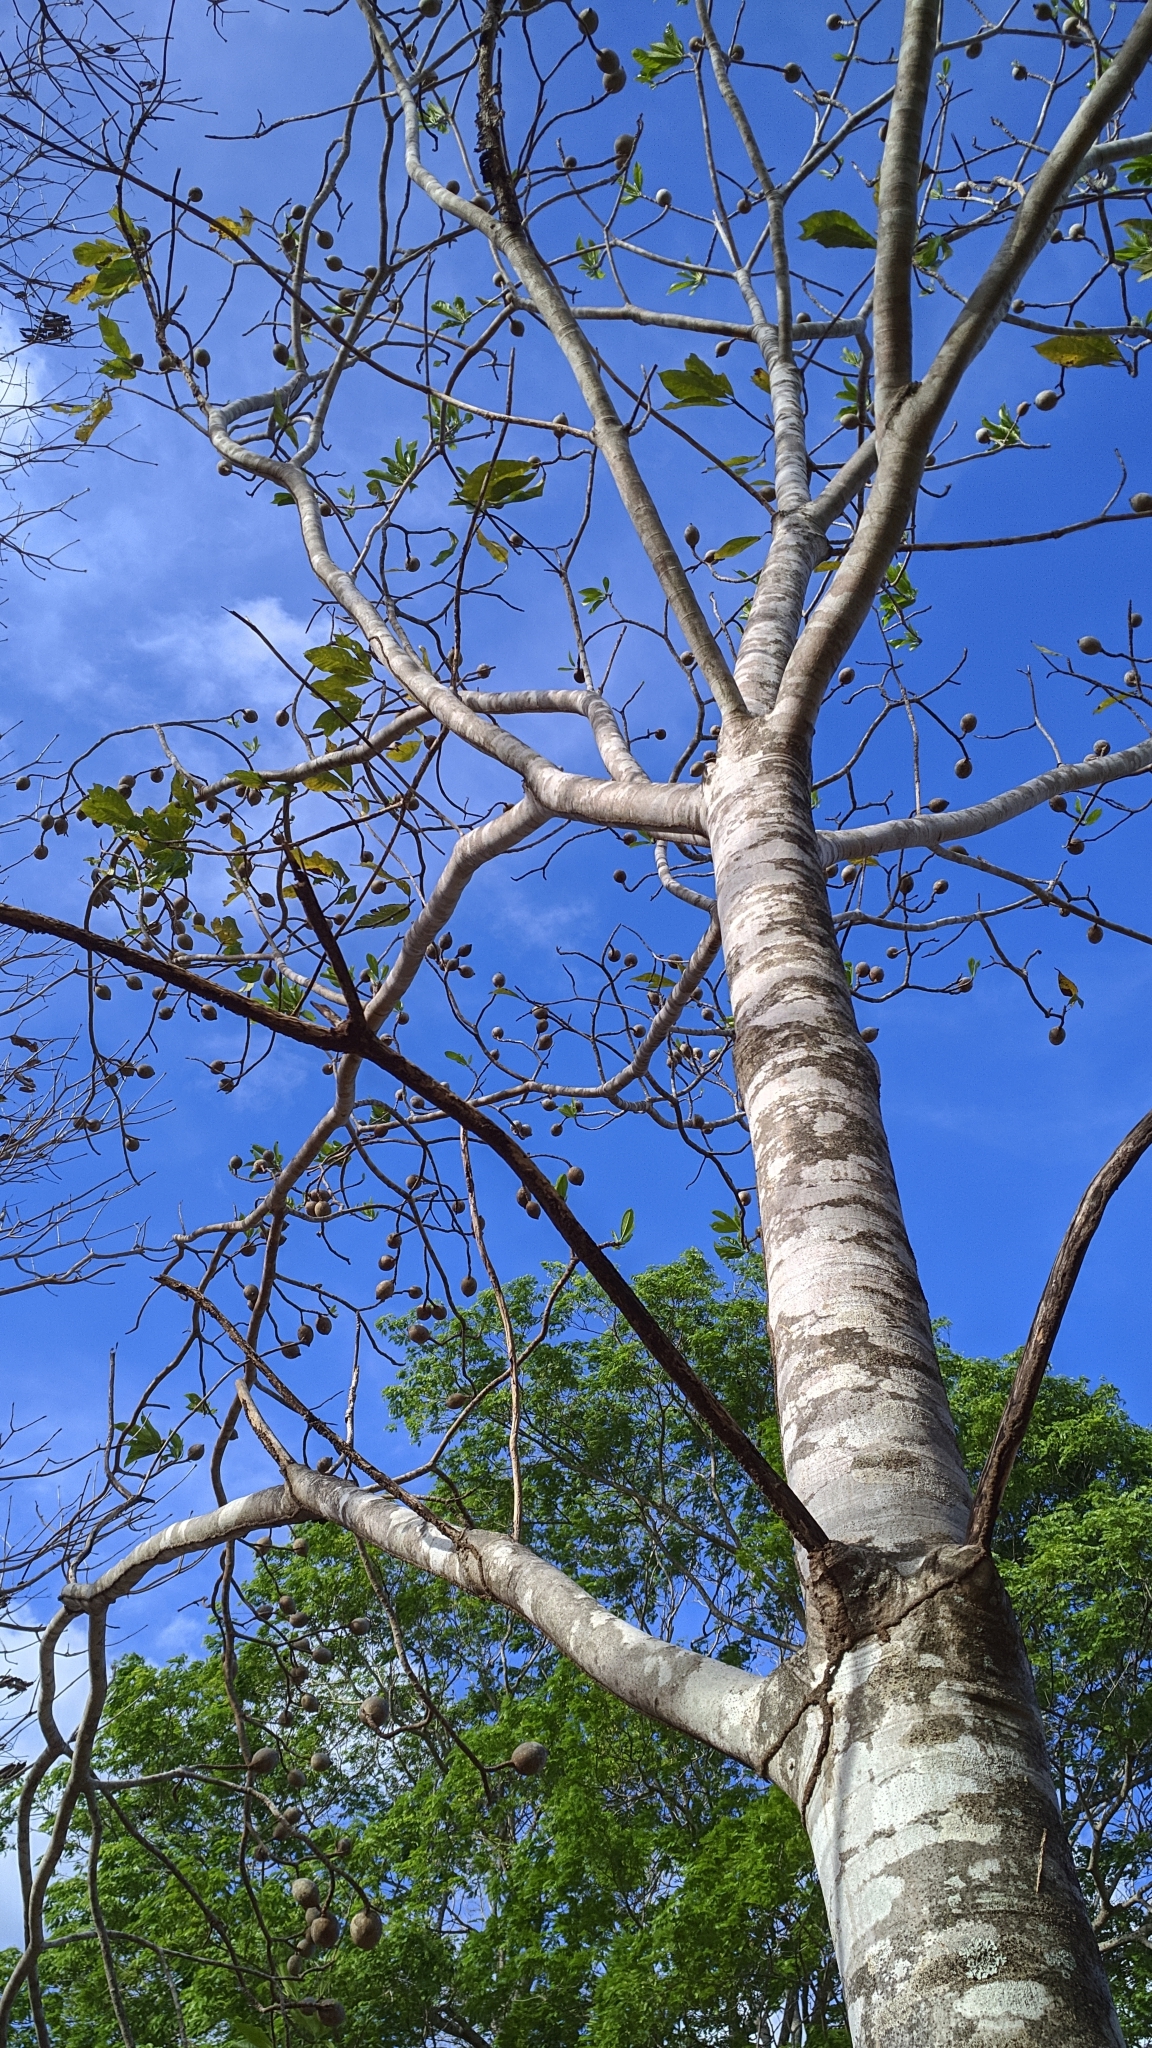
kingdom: Plantae
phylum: Tracheophyta
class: Magnoliopsida
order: Gentianales
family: Rubiaceae
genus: Genipa
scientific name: Genipa americana
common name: Genipap
